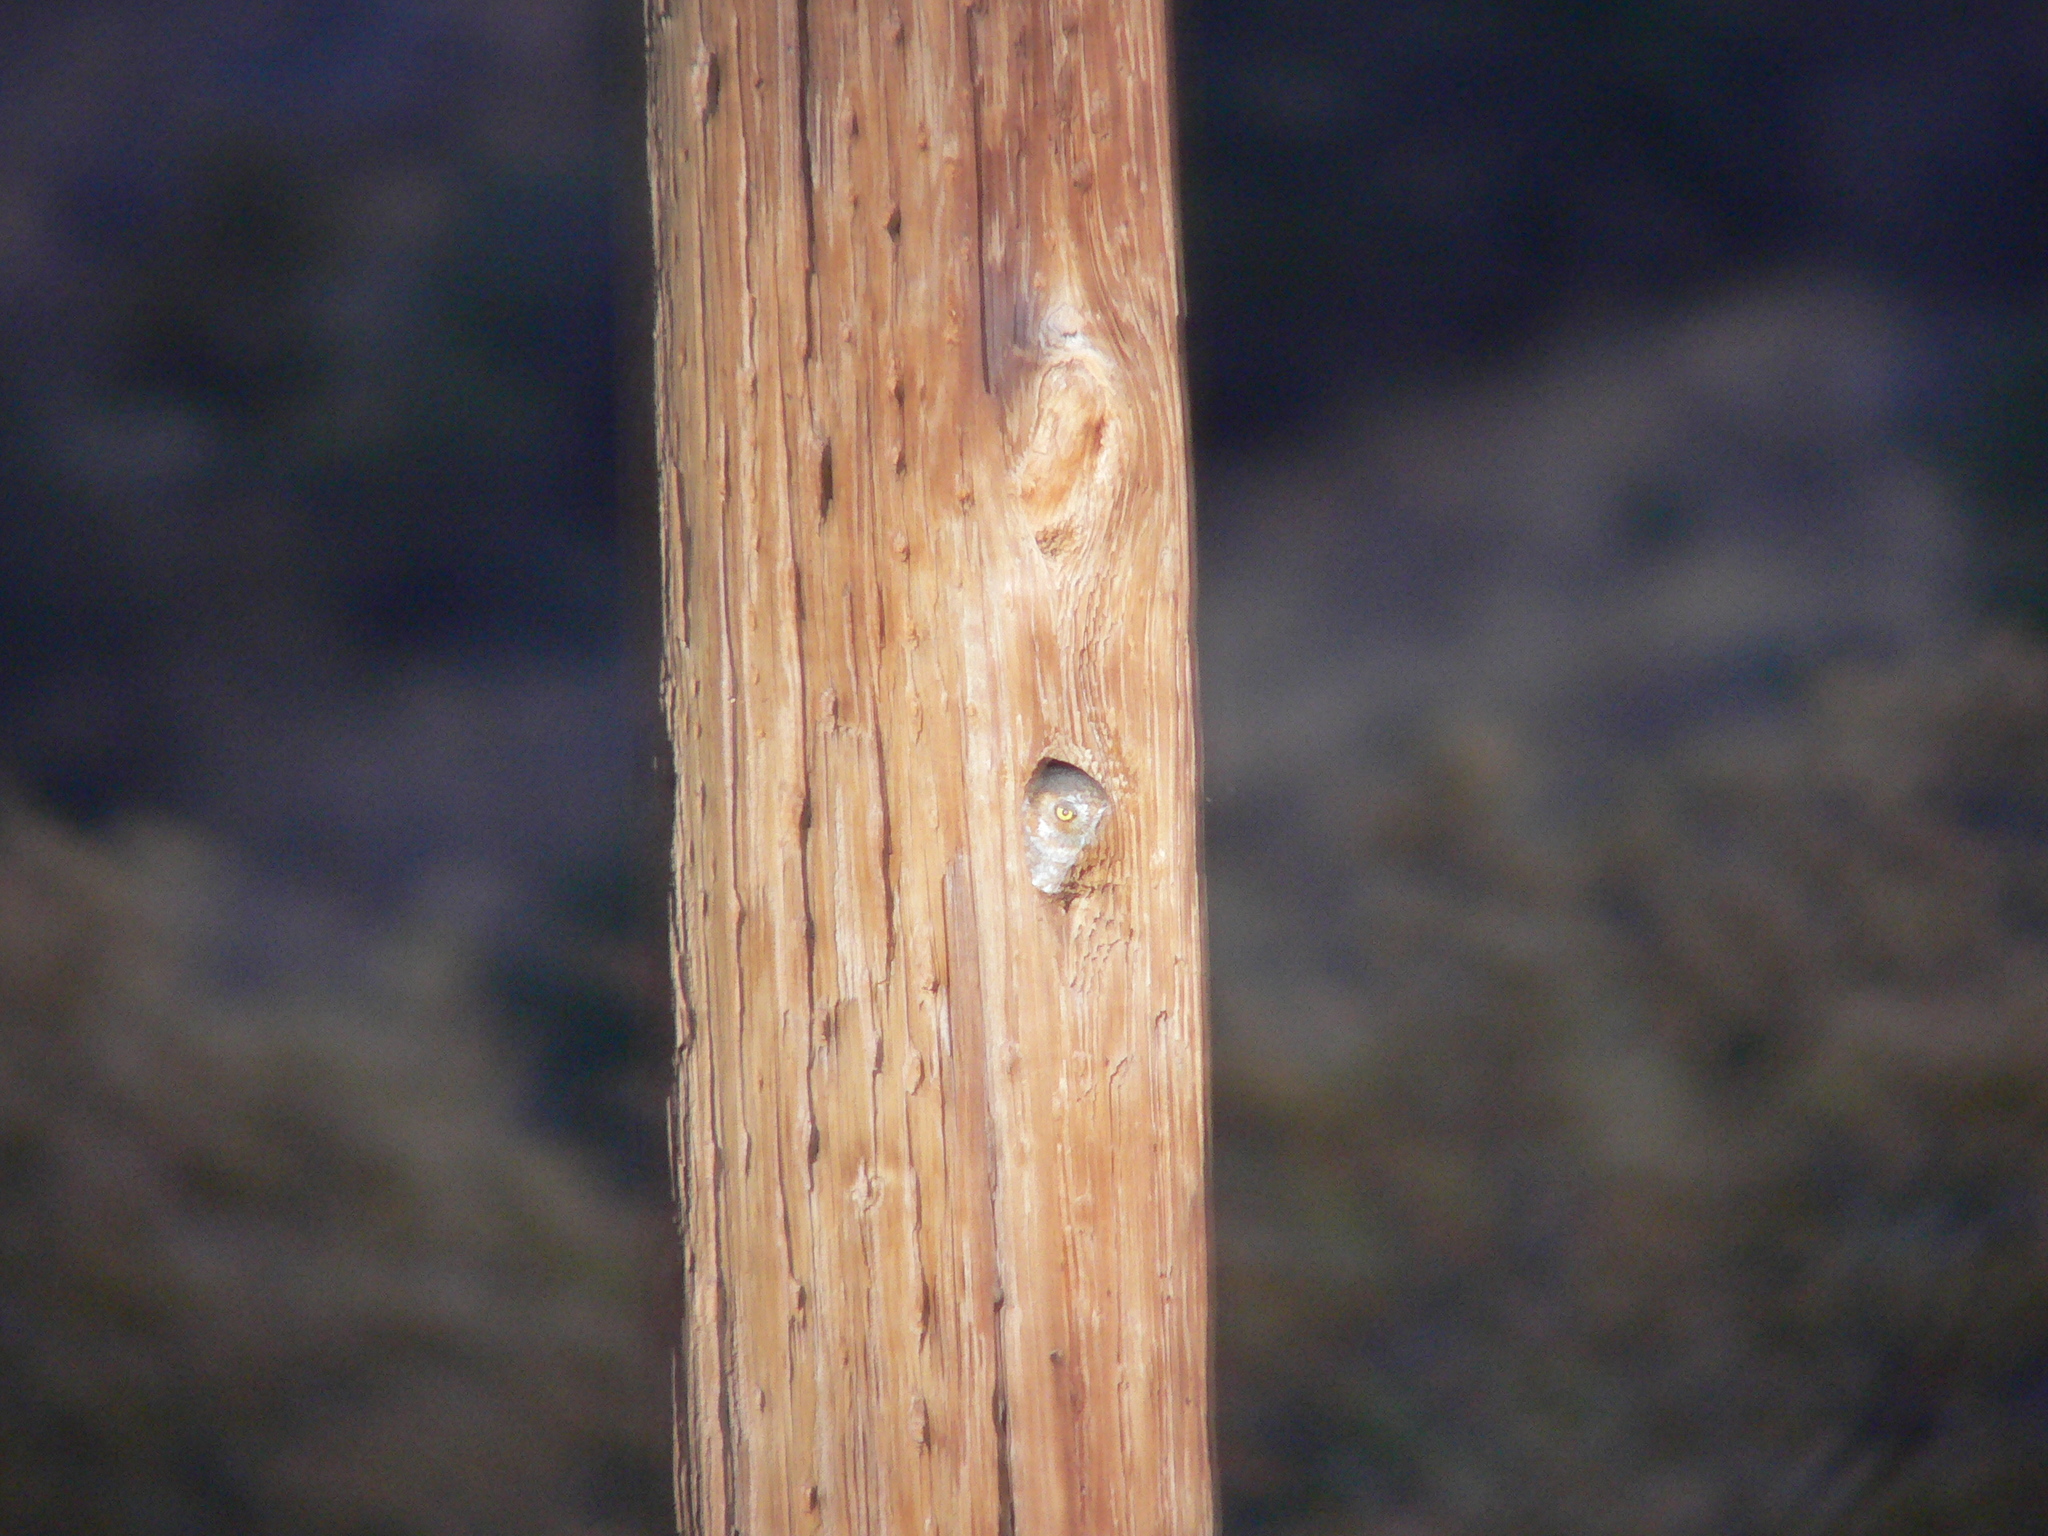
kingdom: Animalia
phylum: Chordata
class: Aves
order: Strigiformes
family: Strigidae
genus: Micrathene
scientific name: Micrathene whitneyi
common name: Elf owl
